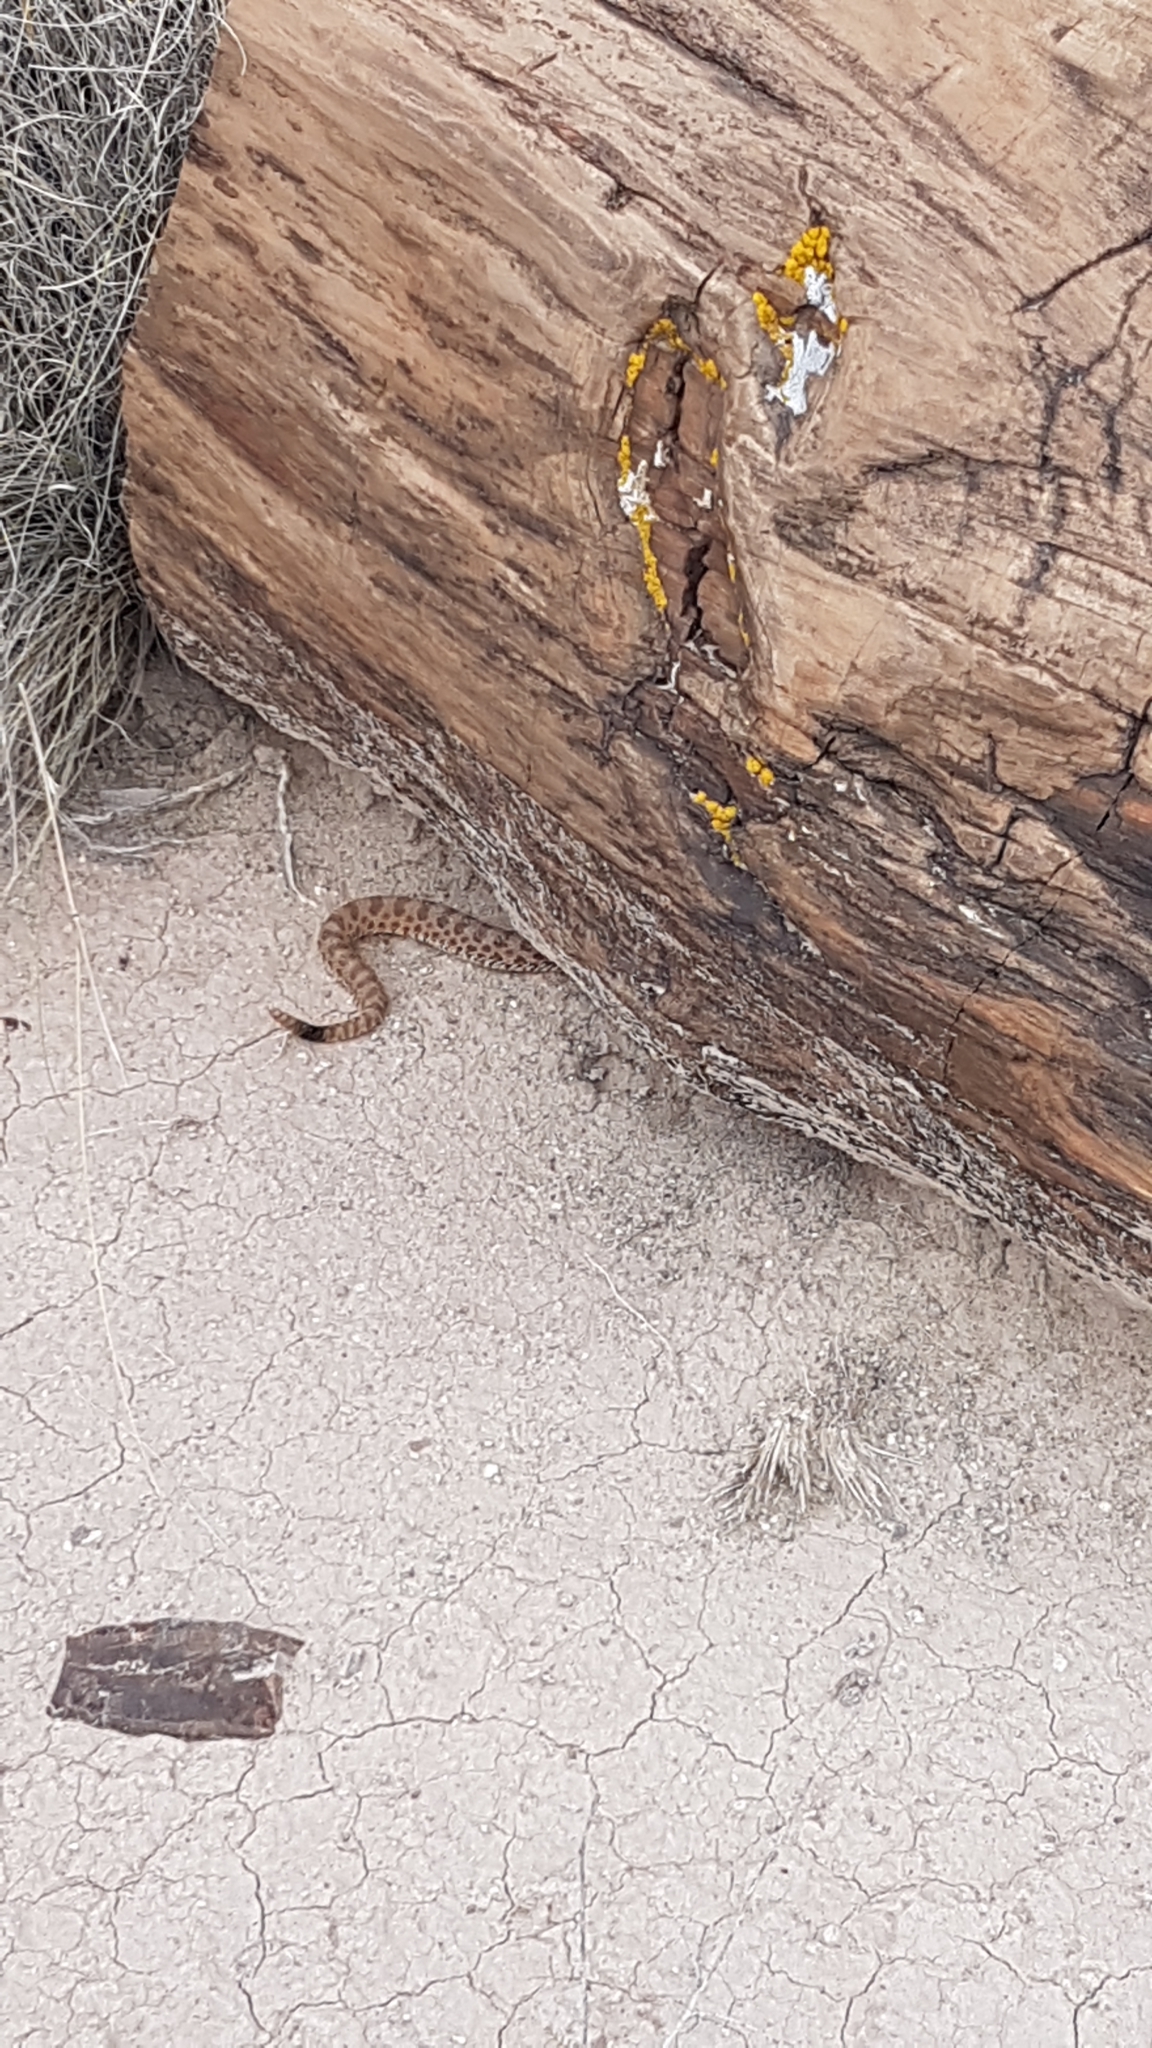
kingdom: Animalia
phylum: Chordata
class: Squamata
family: Viperidae
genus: Crotalus
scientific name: Crotalus viridis
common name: Prairie rattlesnake
